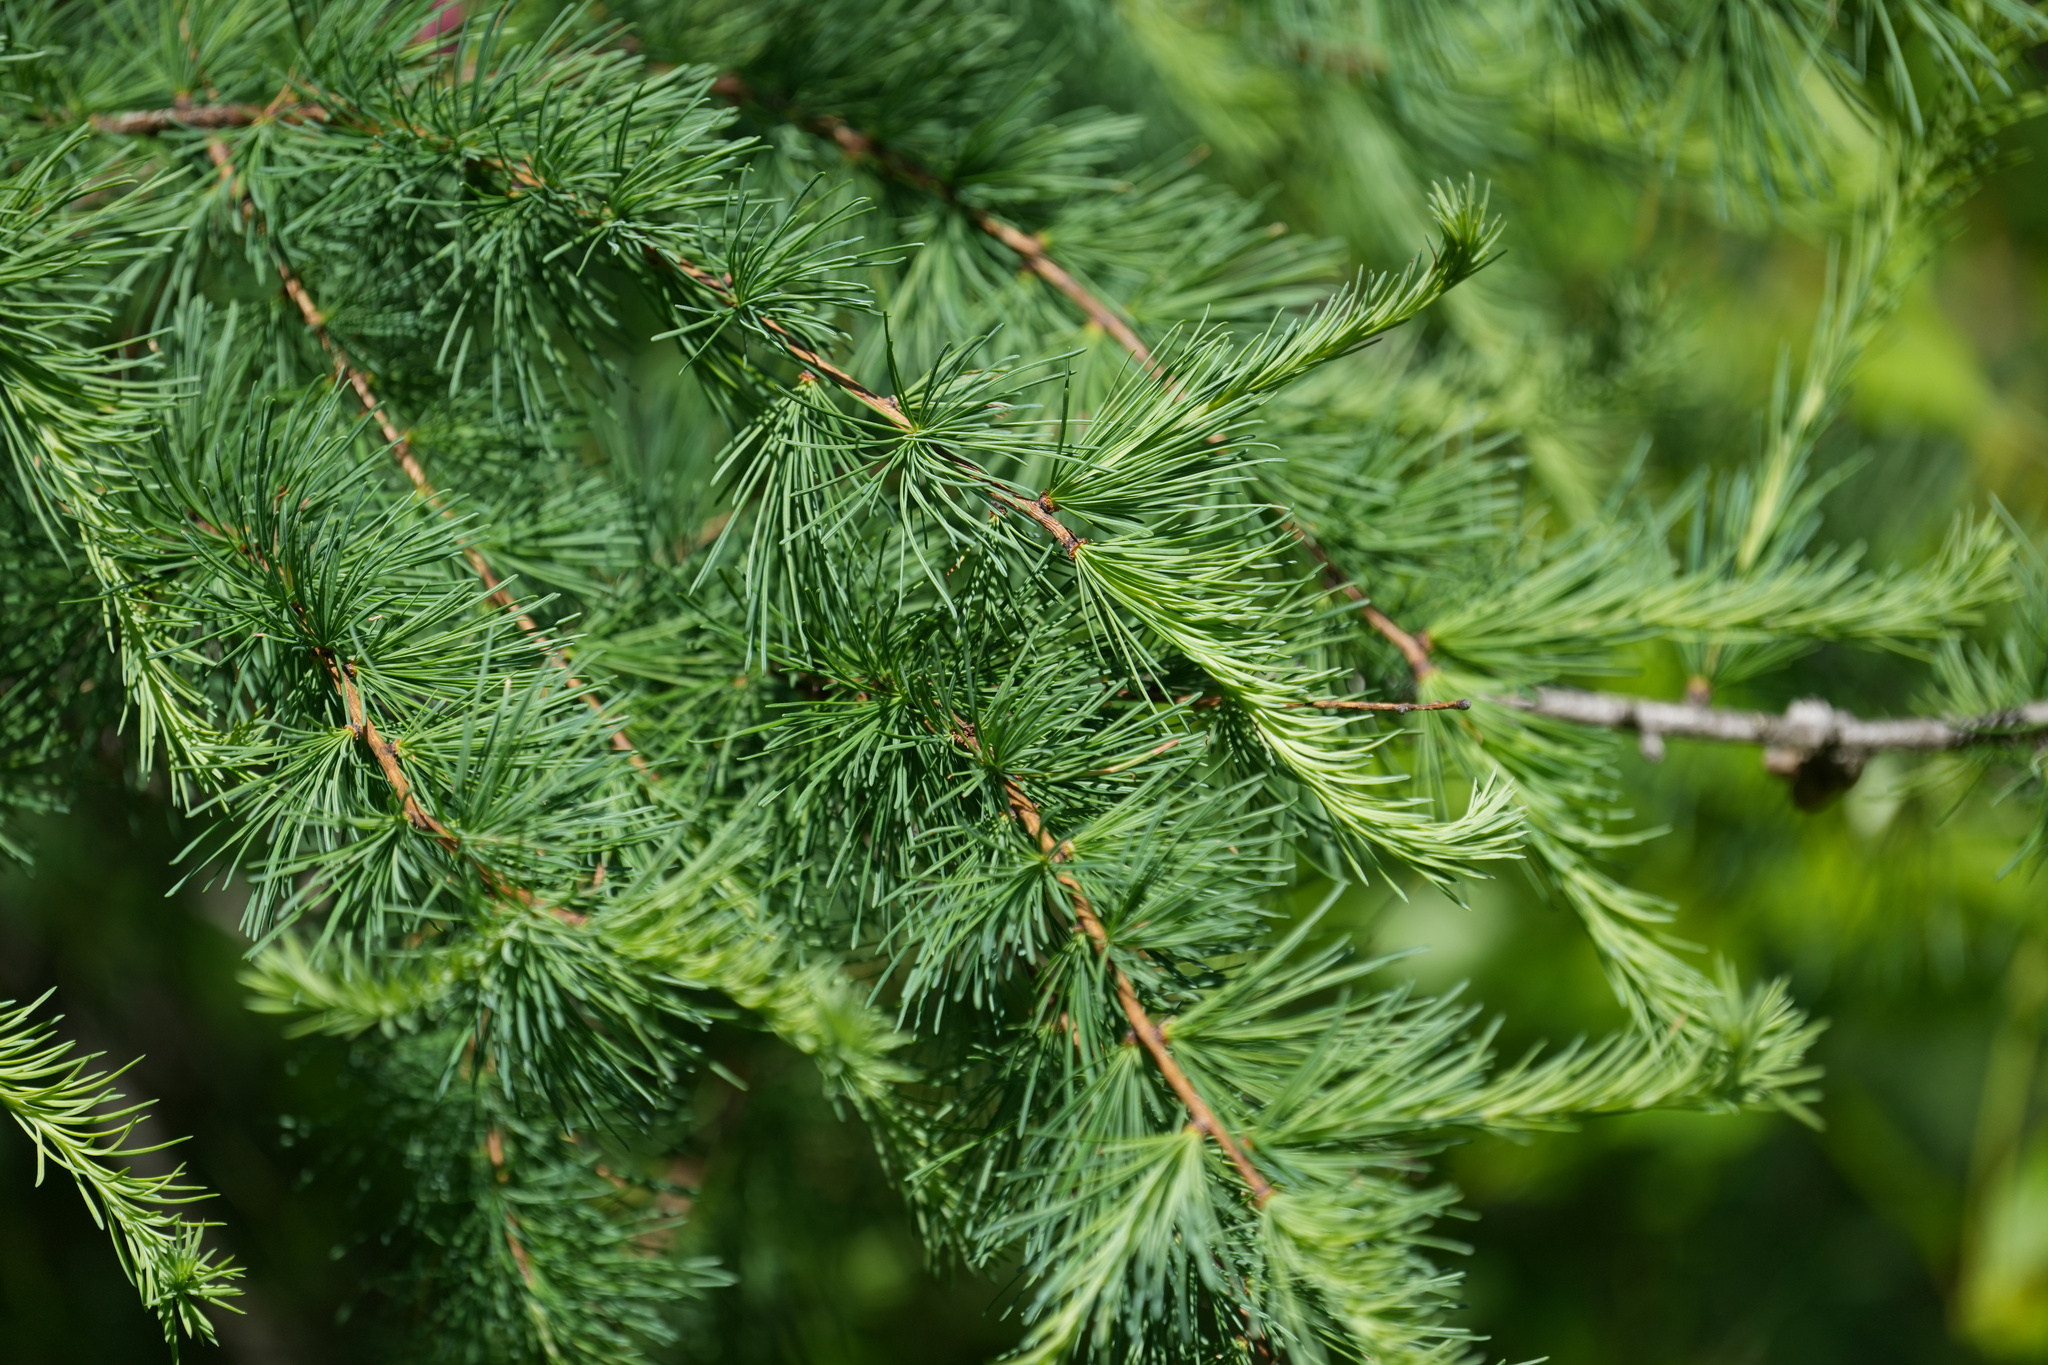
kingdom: Plantae
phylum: Tracheophyta
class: Pinopsida
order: Pinales
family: Pinaceae
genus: Larix
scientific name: Larix laricina
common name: American larch
